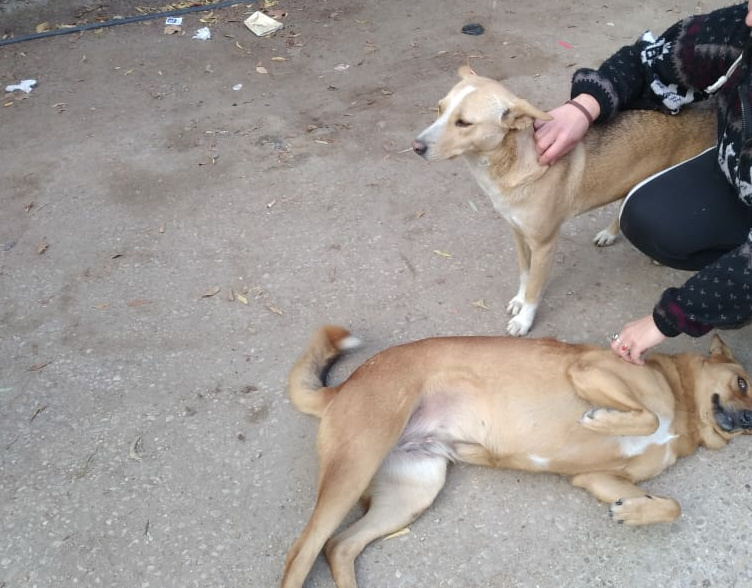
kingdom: Animalia
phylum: Chordata
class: Mammalia
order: Carnivora
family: Canidae
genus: Canis
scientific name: Canis lupus
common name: Gray wolf
